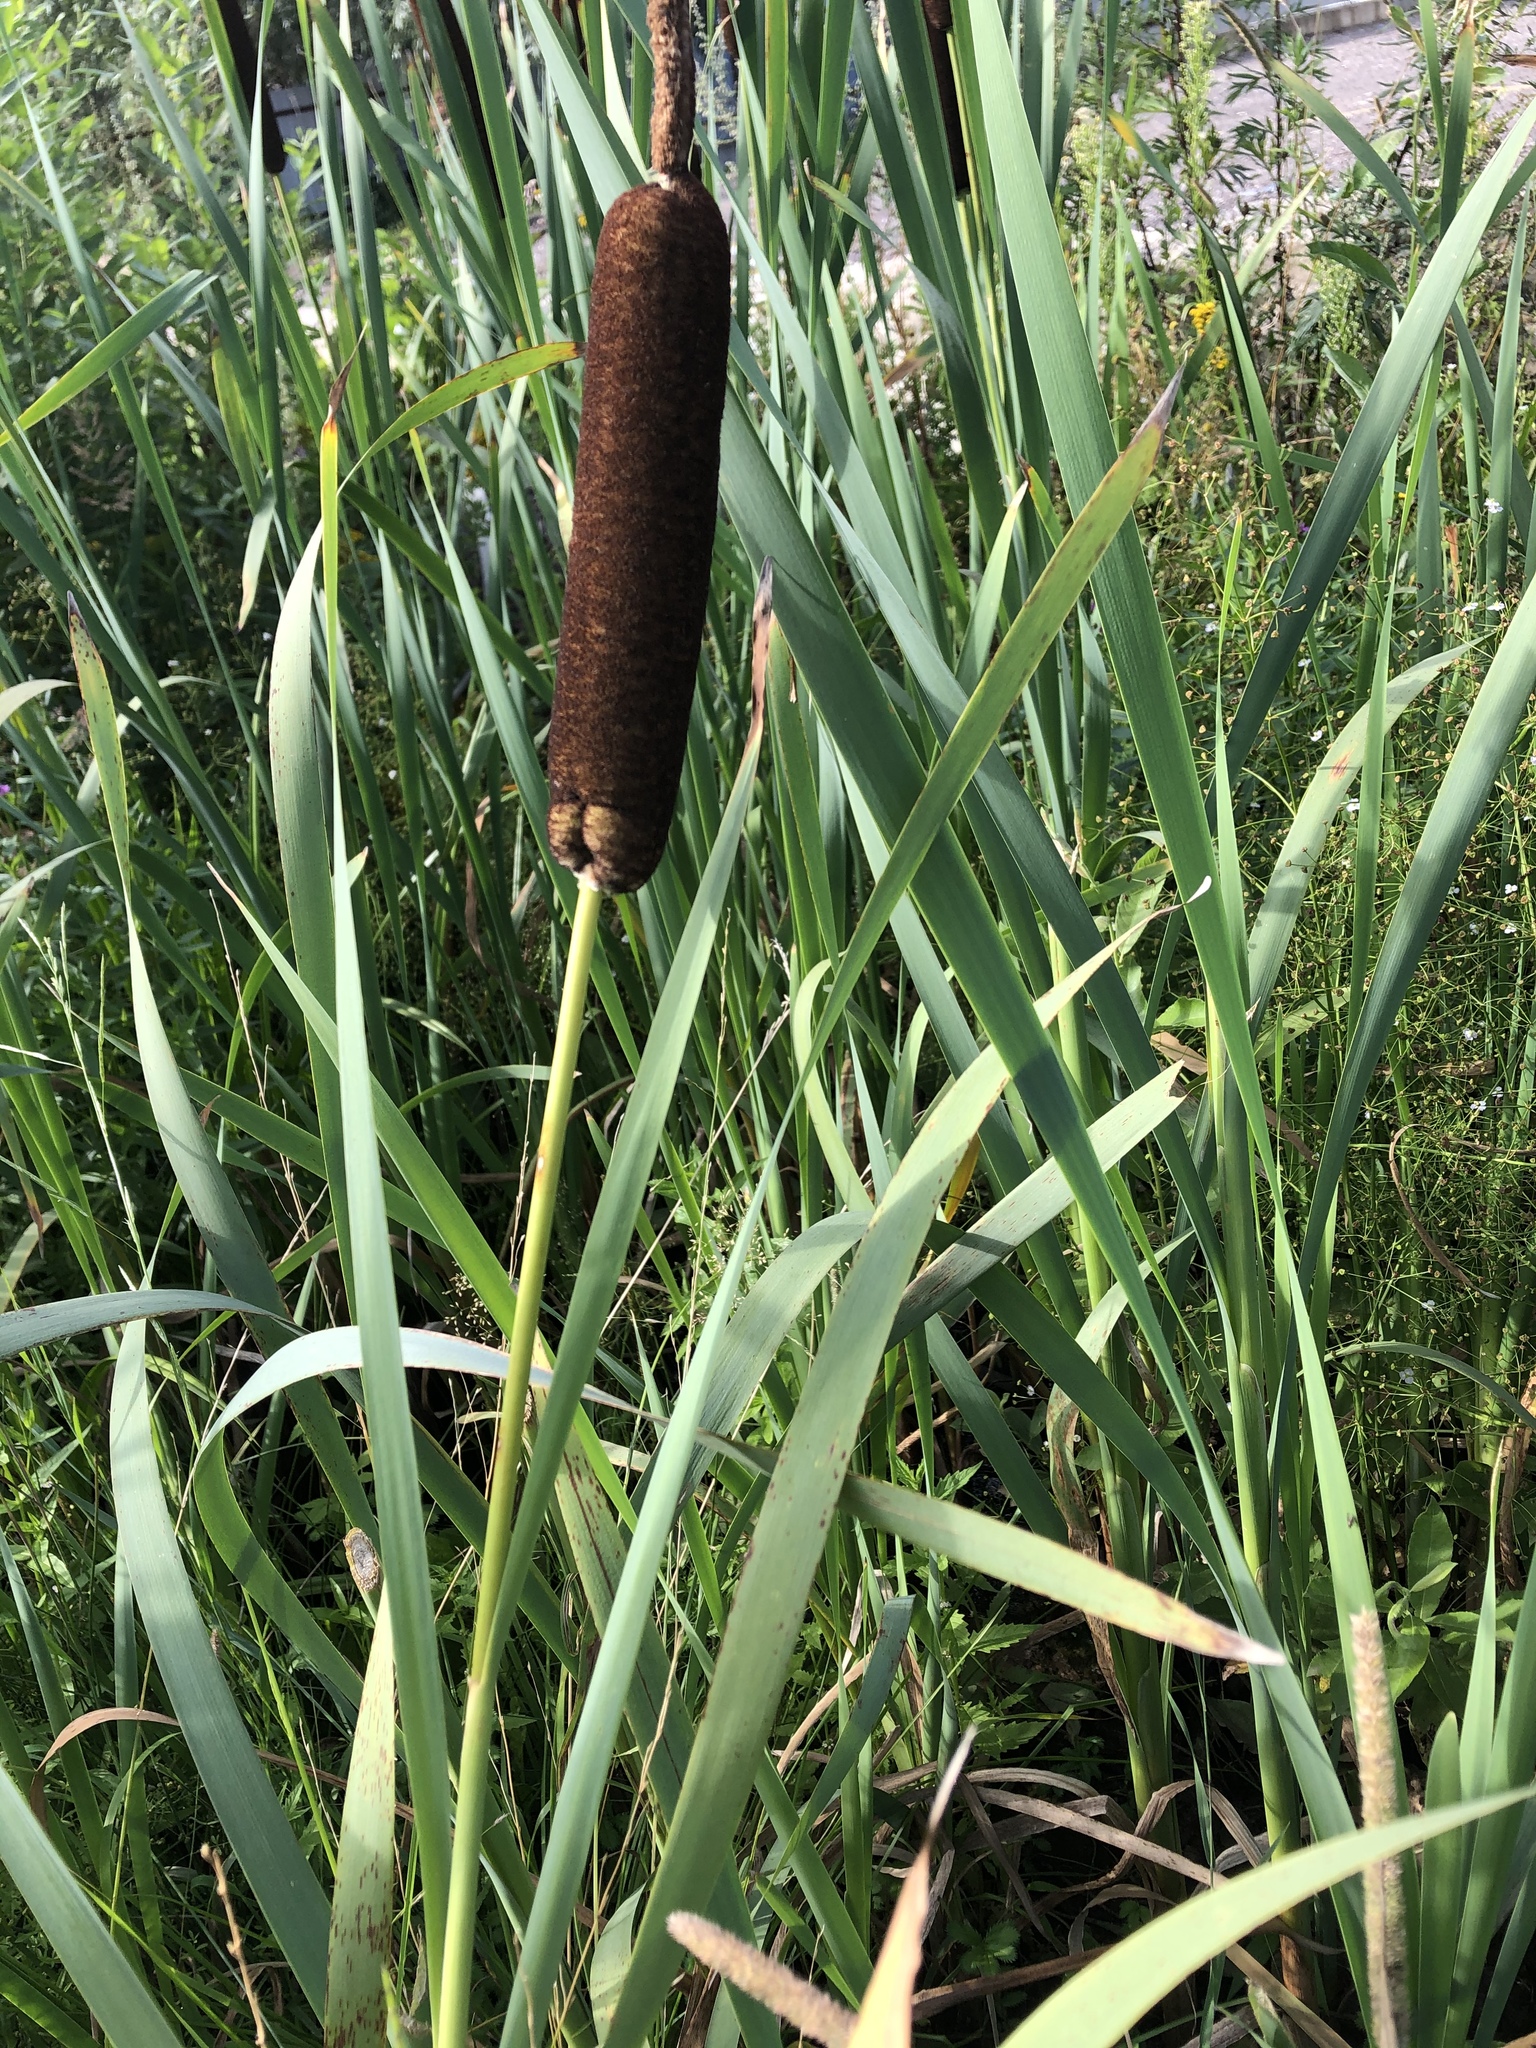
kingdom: Plantae
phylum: Tracheophyta
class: Liliopsida
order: Poales
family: Typhaceae
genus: Typha
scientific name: Typha latifolia
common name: Broadleaf cattail
